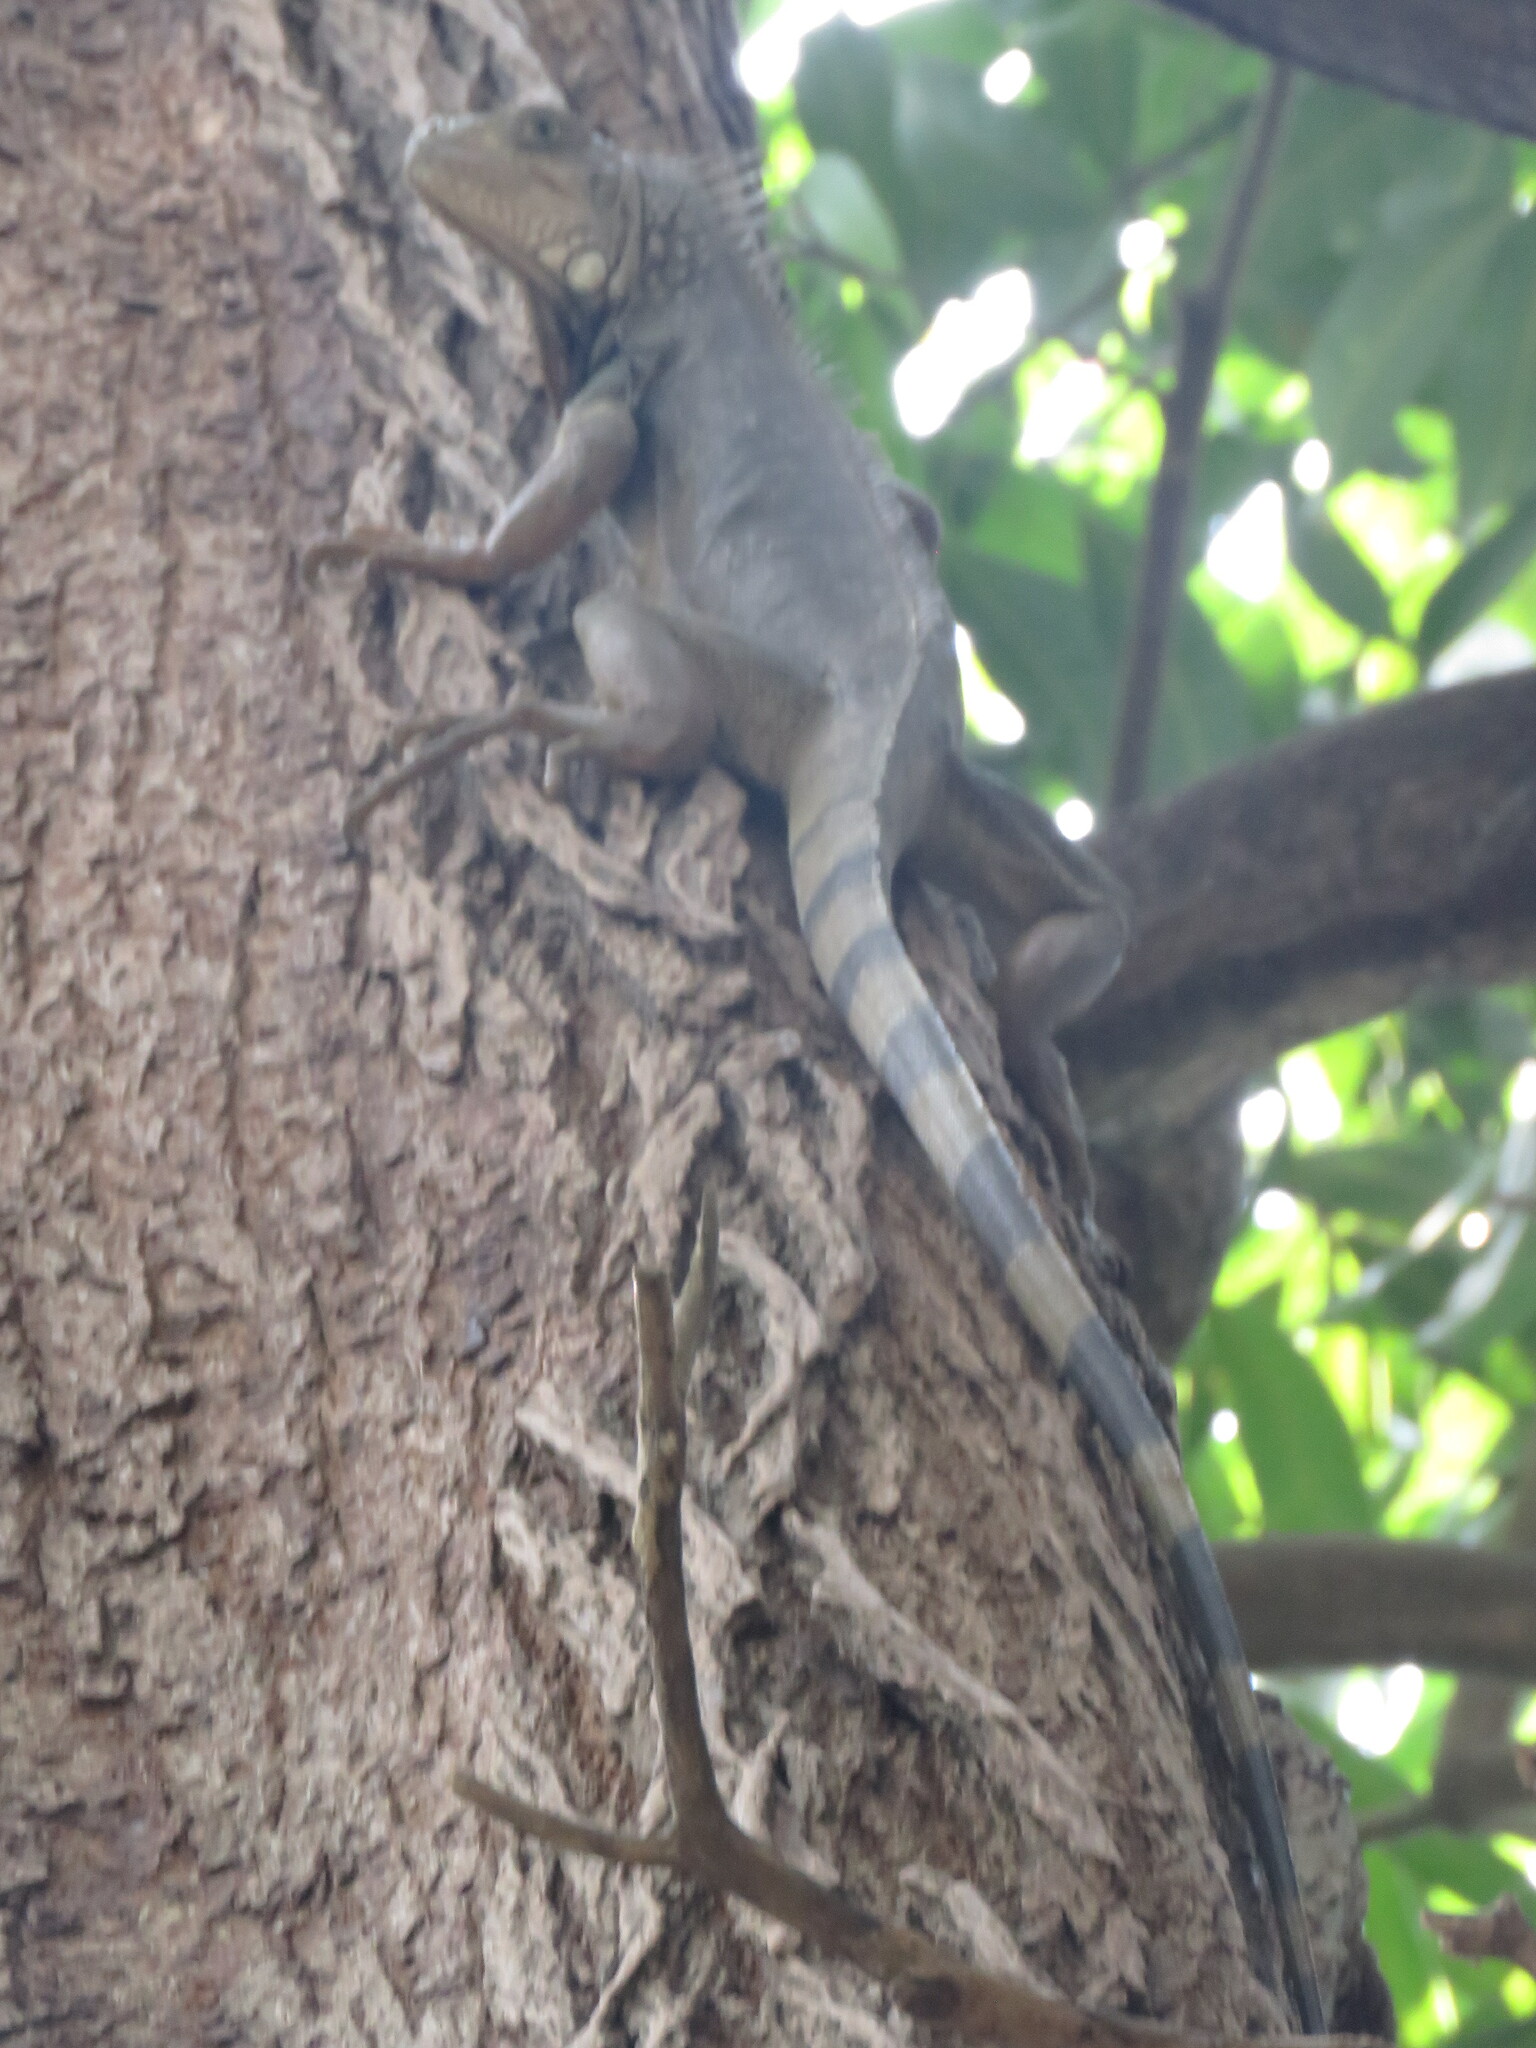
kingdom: Animalia
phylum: Chordata
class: Squamata
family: Iguanidae
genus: Iguana
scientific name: Iguana iguana
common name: Green iguana
